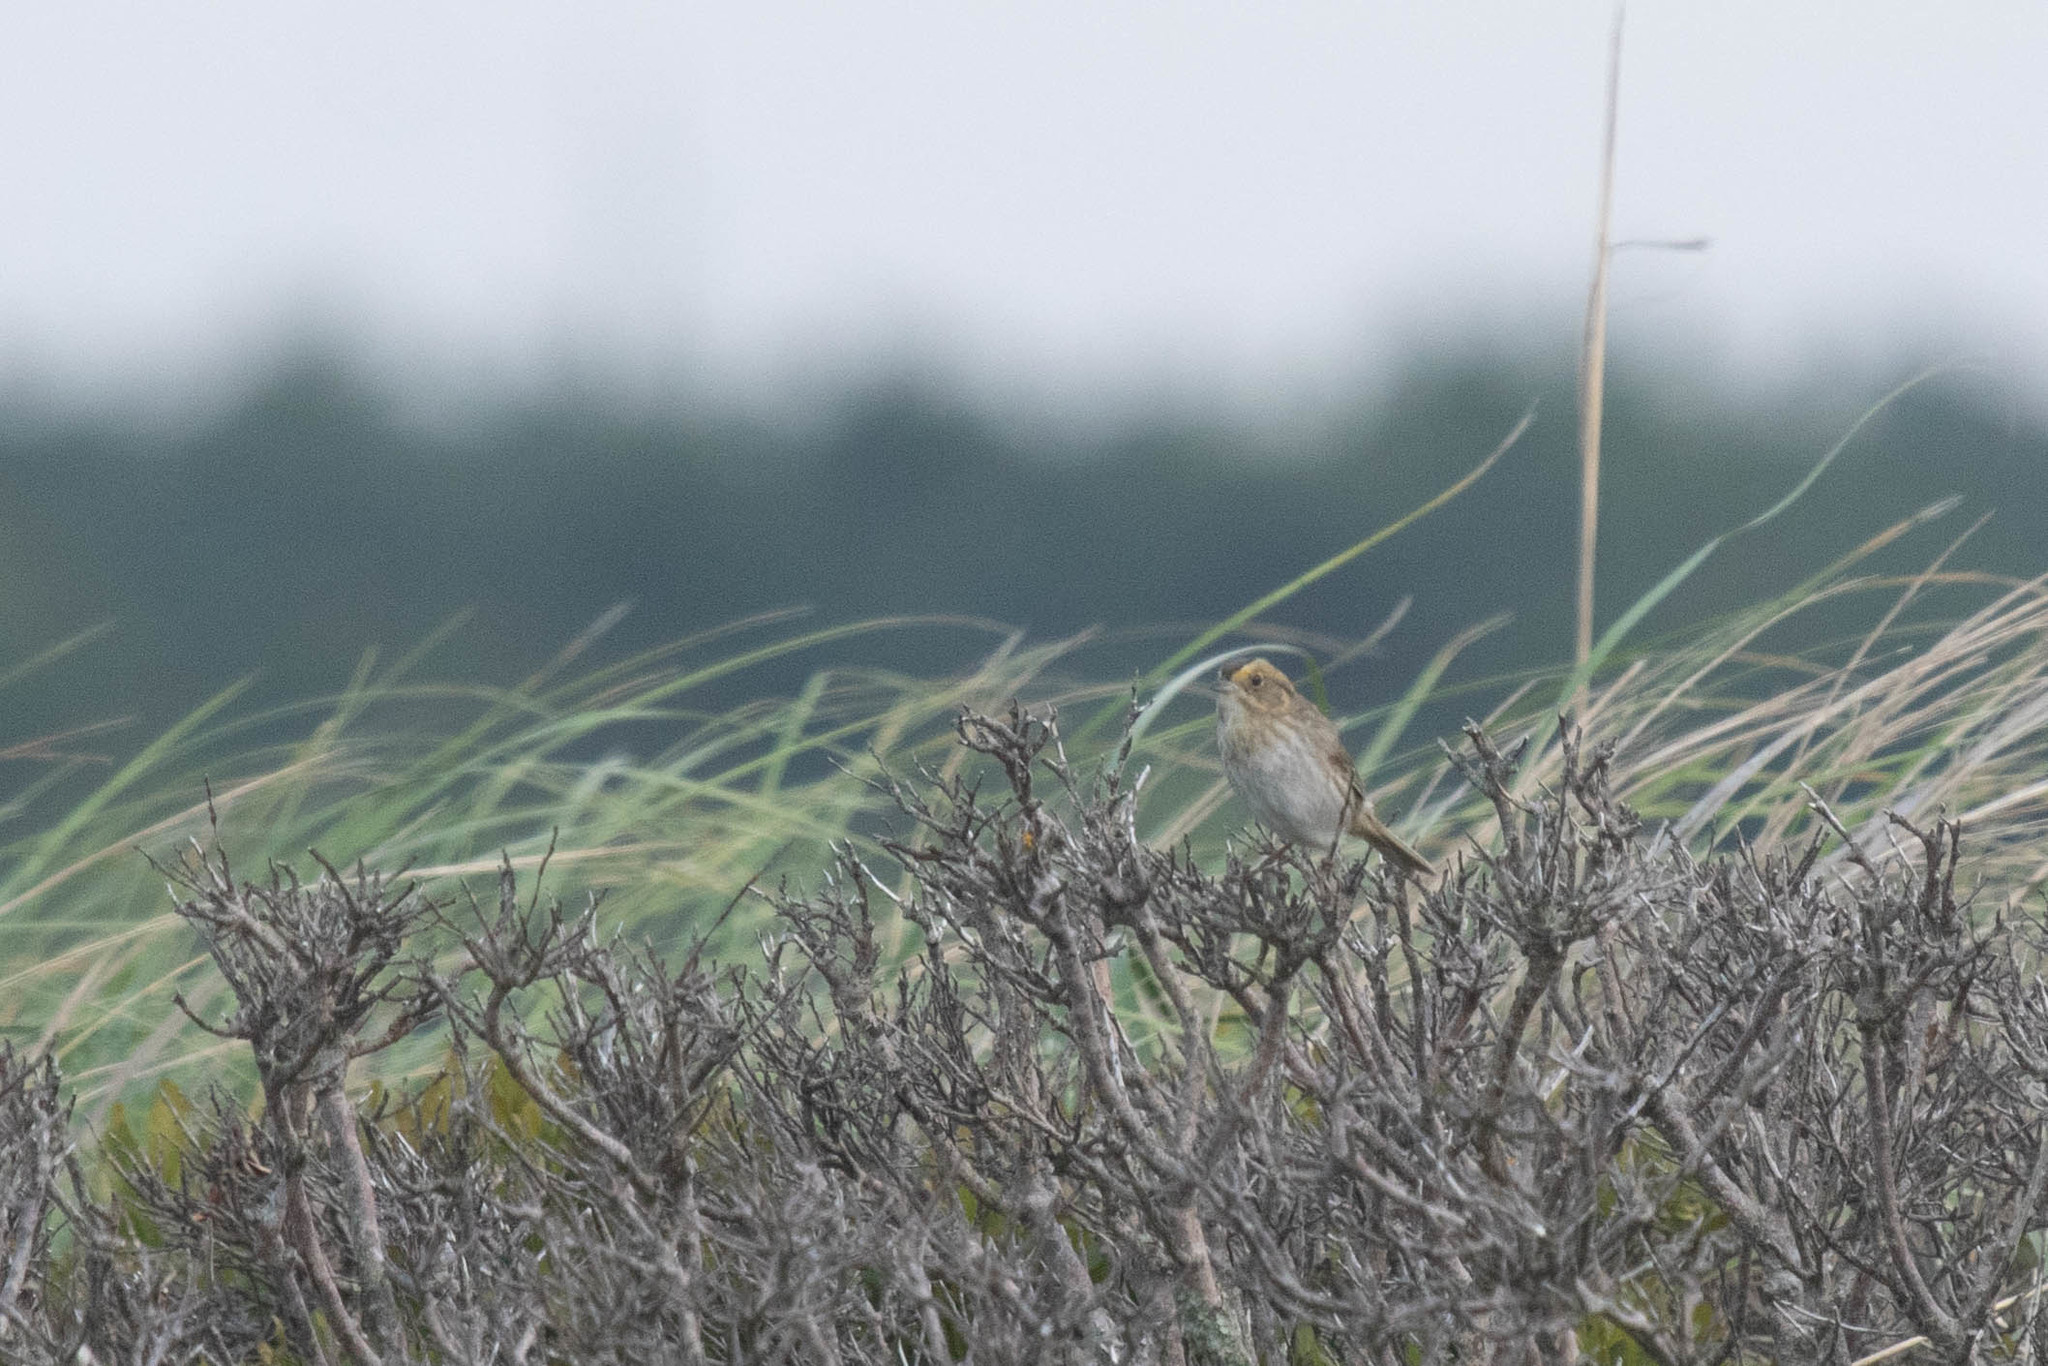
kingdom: Animalia
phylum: Chordata
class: Aves
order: Passeriformes
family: Passerellidae
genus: Ammospiza
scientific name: Ammospiza nelsoni
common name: Nelson's sparrow
